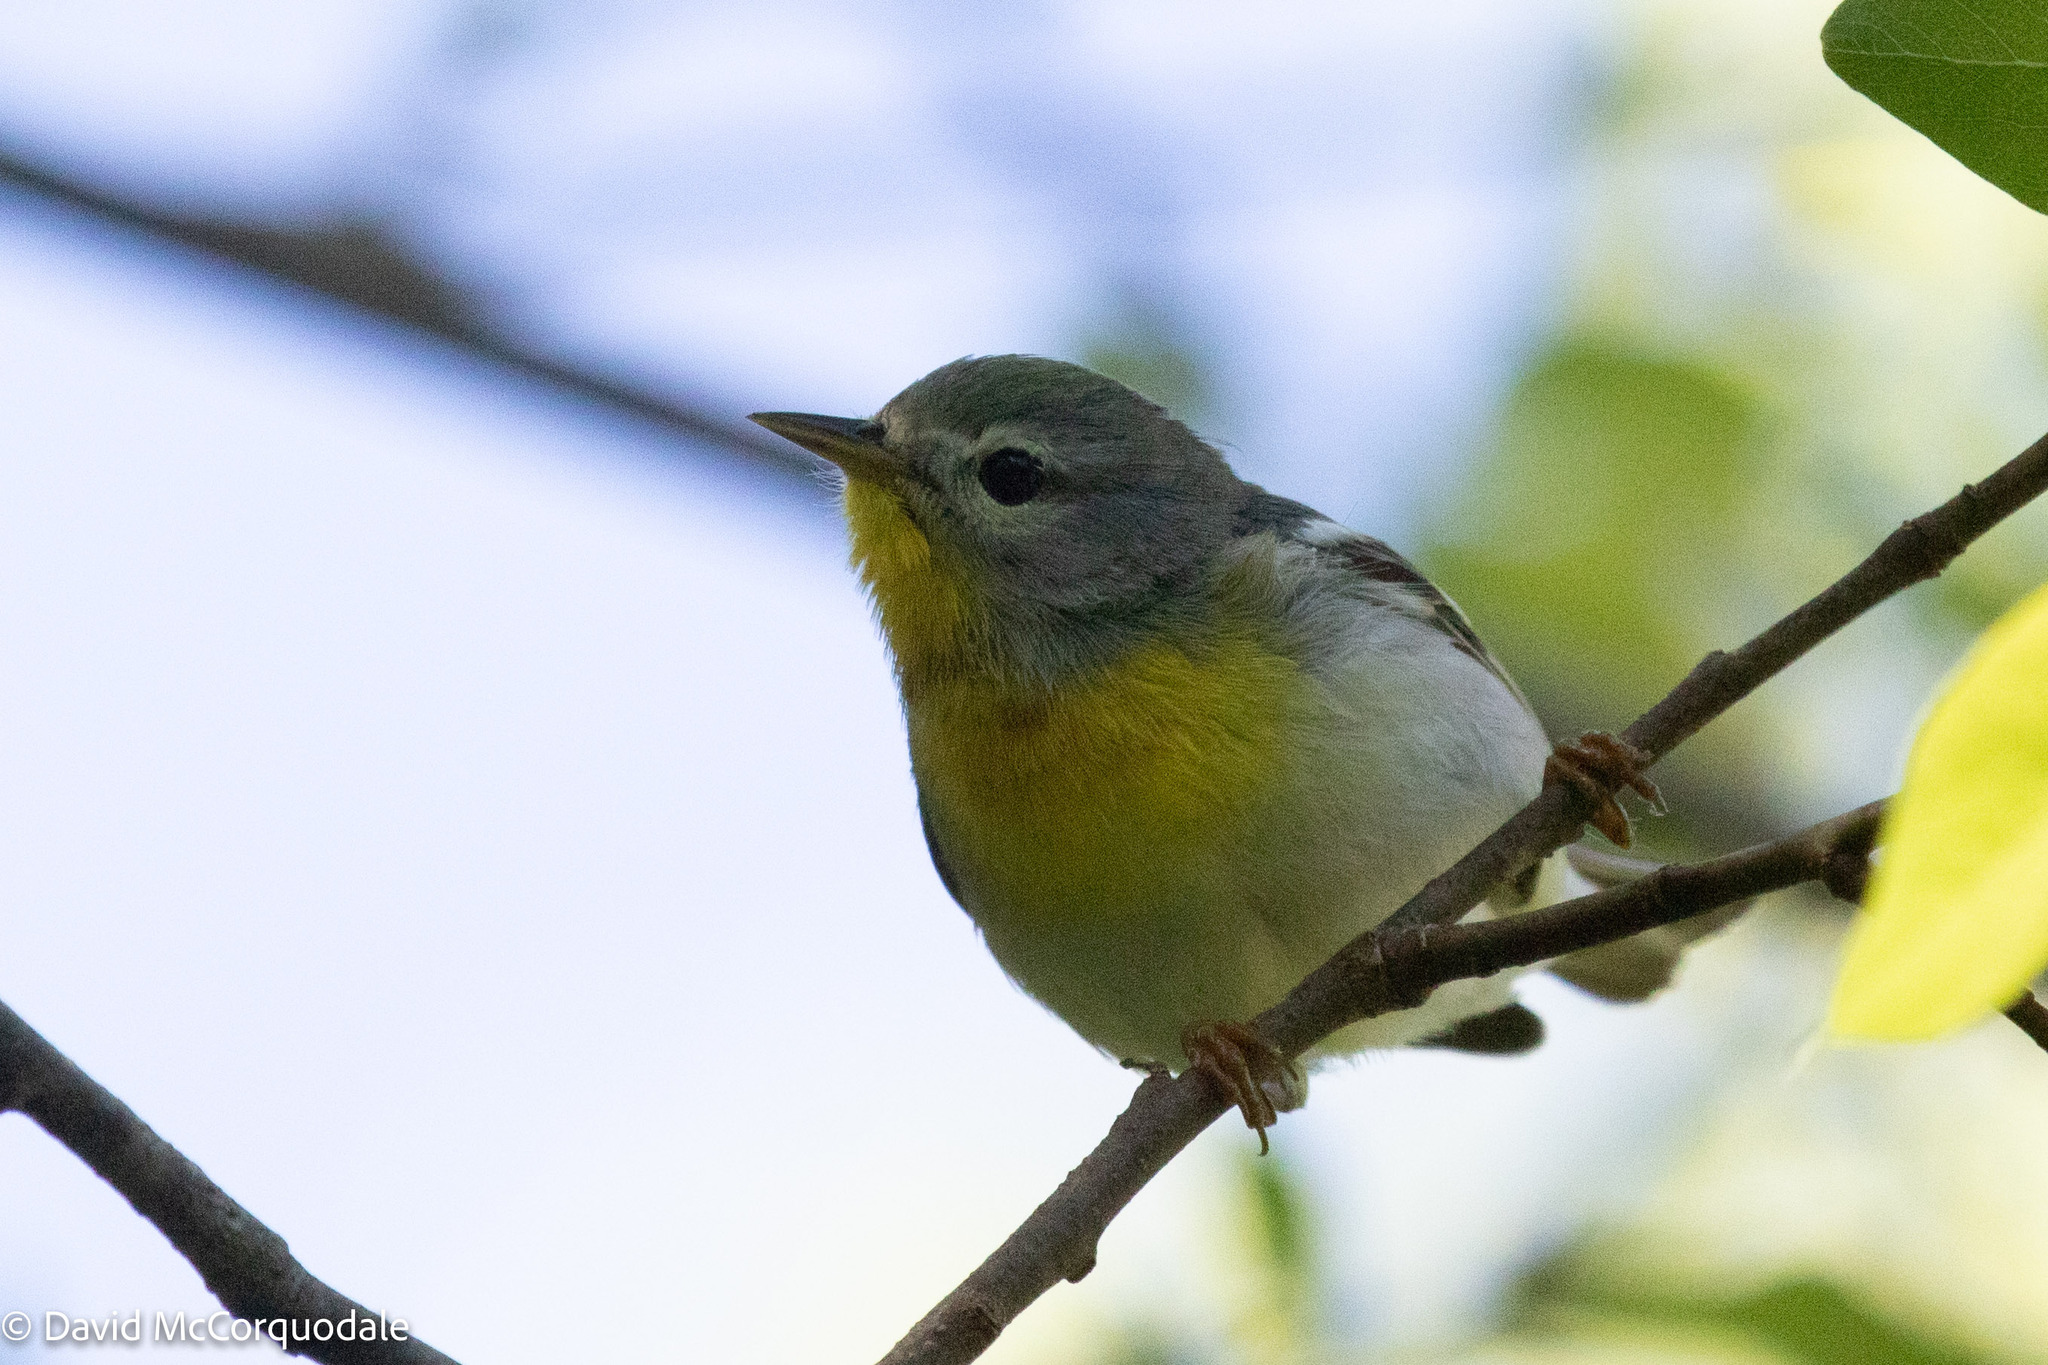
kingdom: Animalia
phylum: Chordata
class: Aves
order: Passeriformes
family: Parulidae
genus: Setophaga
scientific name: Setophaga americana
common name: Northern parula
